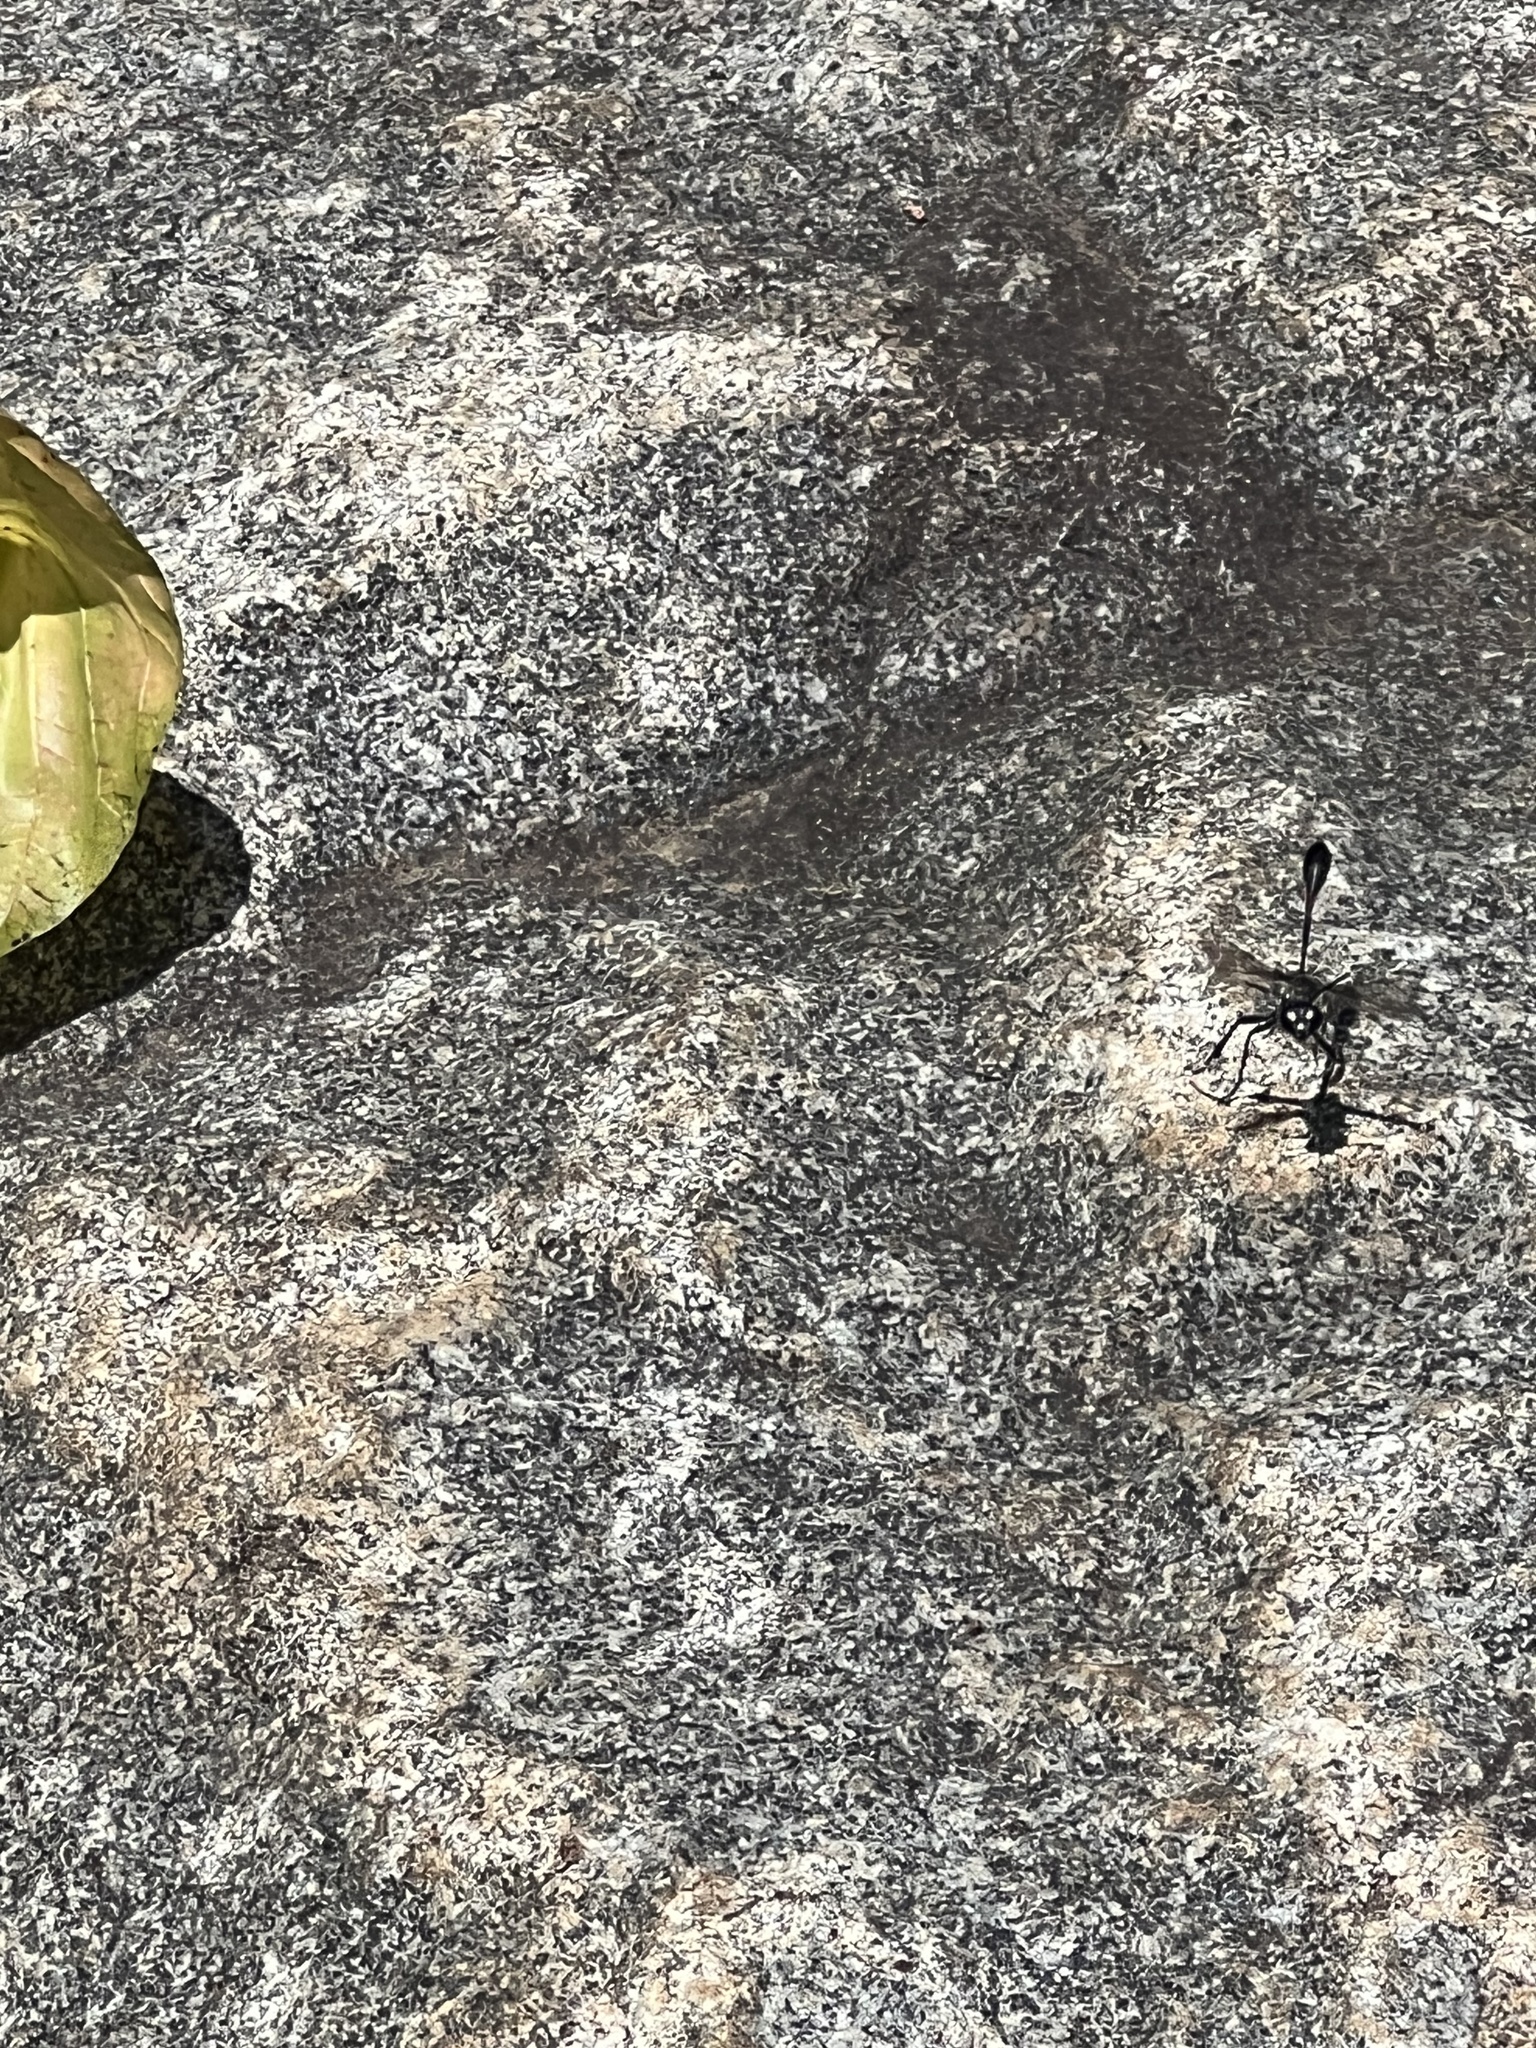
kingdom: Animalia
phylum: Arthropoda
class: Insecta
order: Hymenoptera
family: Sphecidae
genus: Eremnophila
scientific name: Eremnophila aureonotata
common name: Gold-marked thread-waisted wasp
